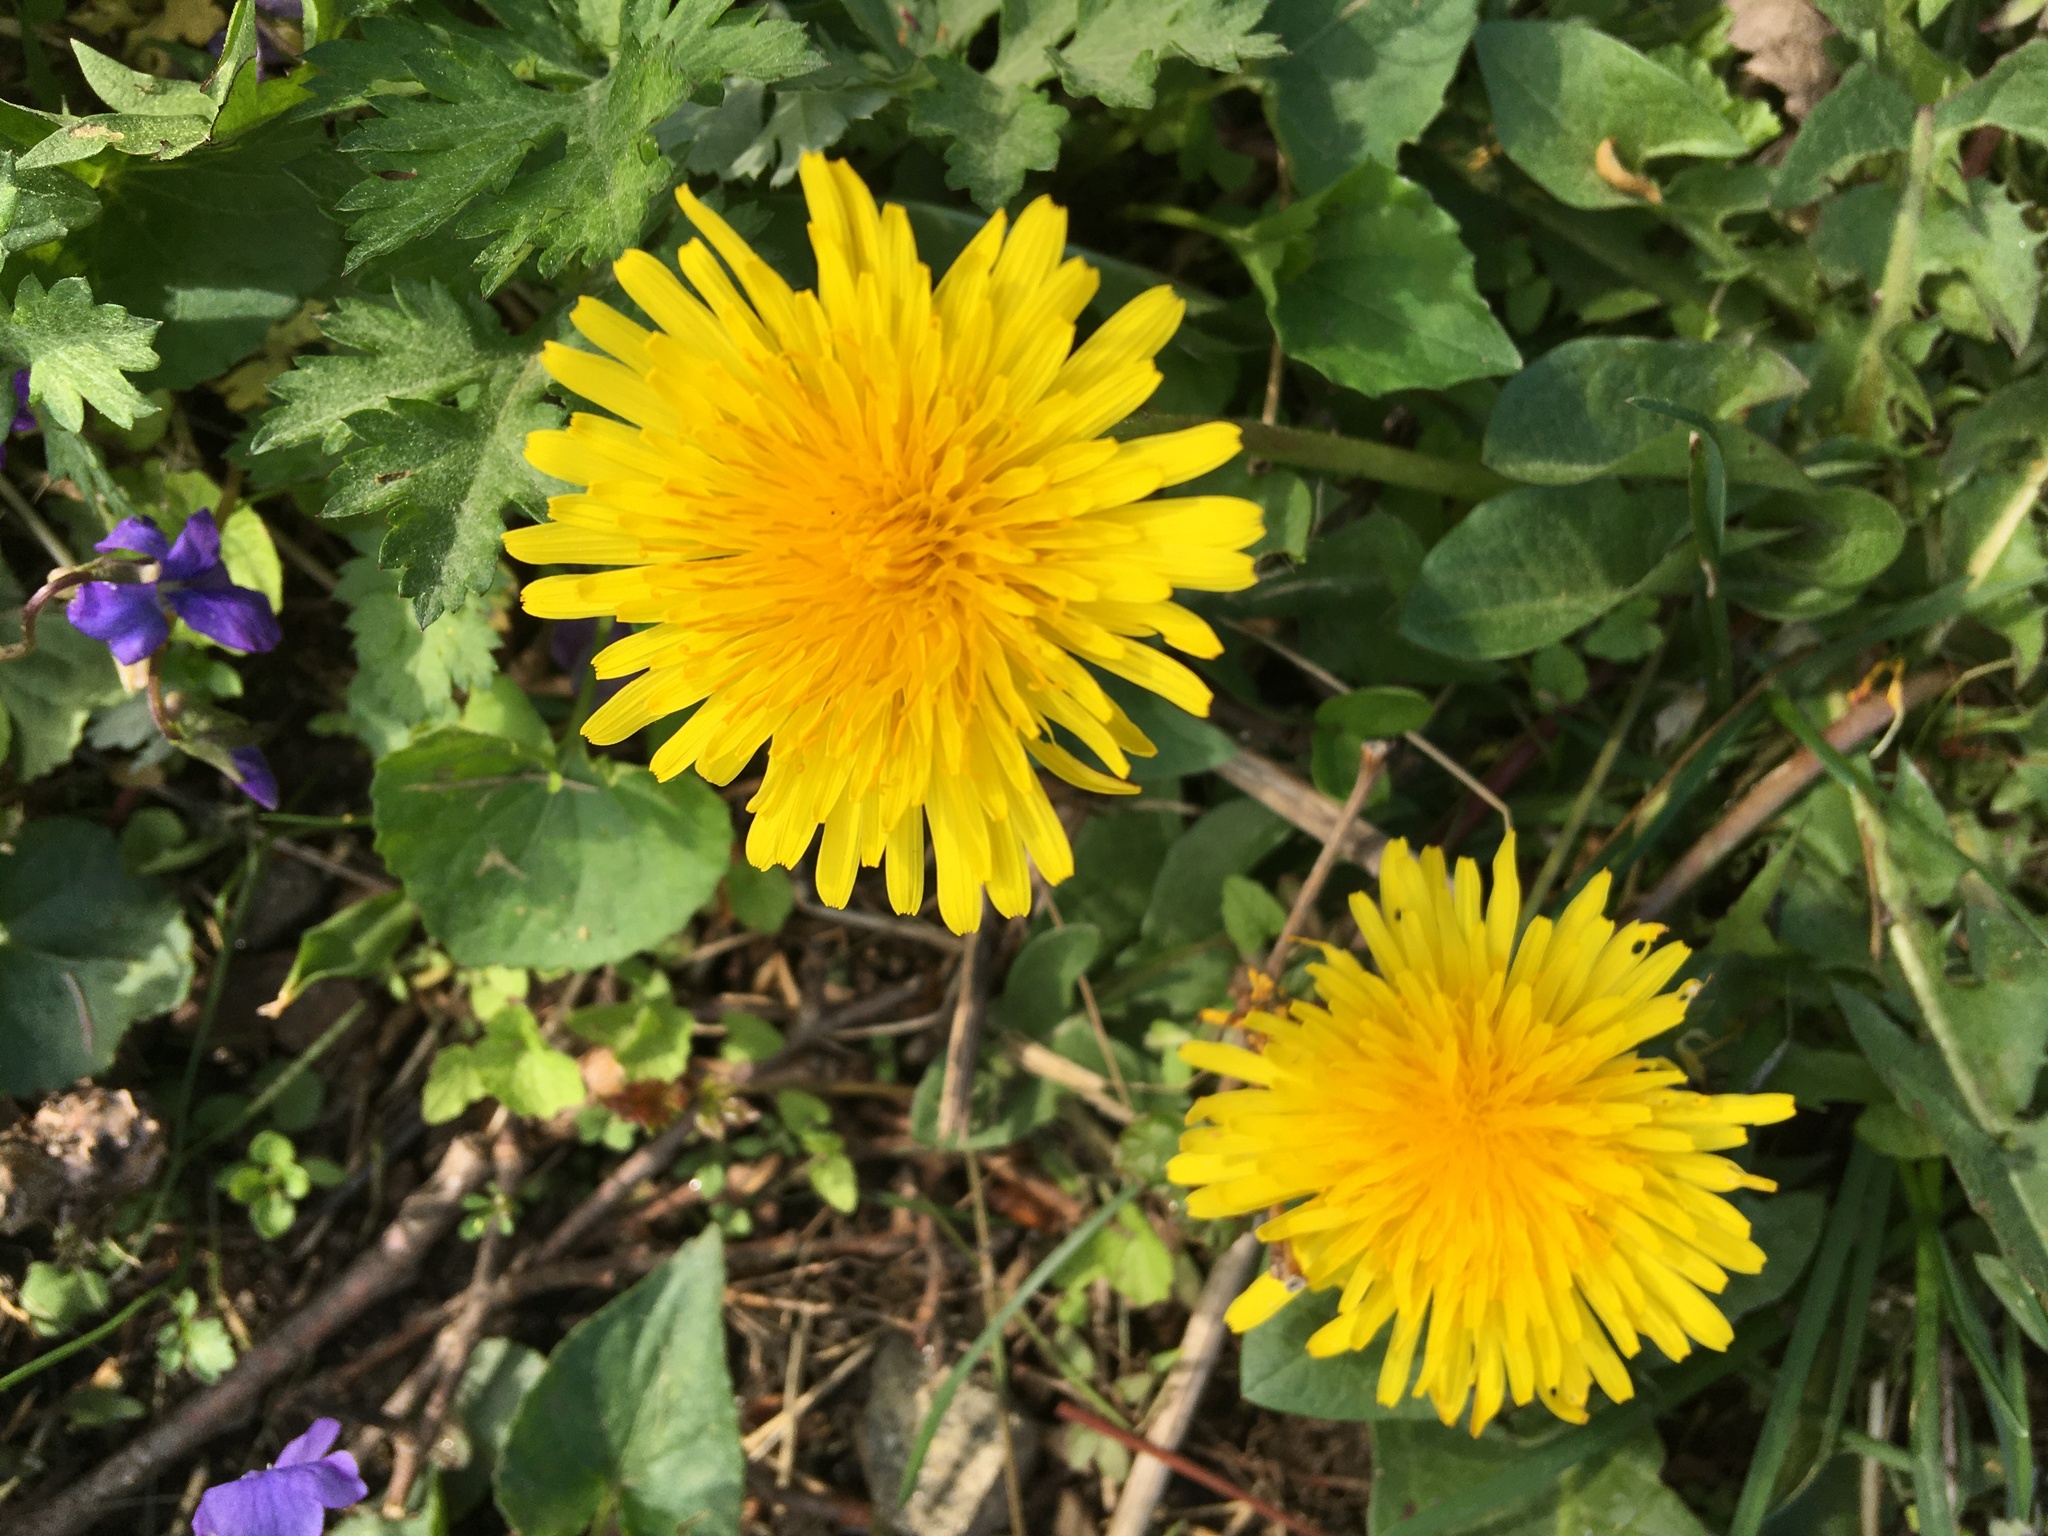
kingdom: Plantae
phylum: Tracheophyta
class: Magnoliopsida
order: Asterales
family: Asteraceae
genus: Taraxacum
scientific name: Taraxacum officinale
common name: Common dandelion
